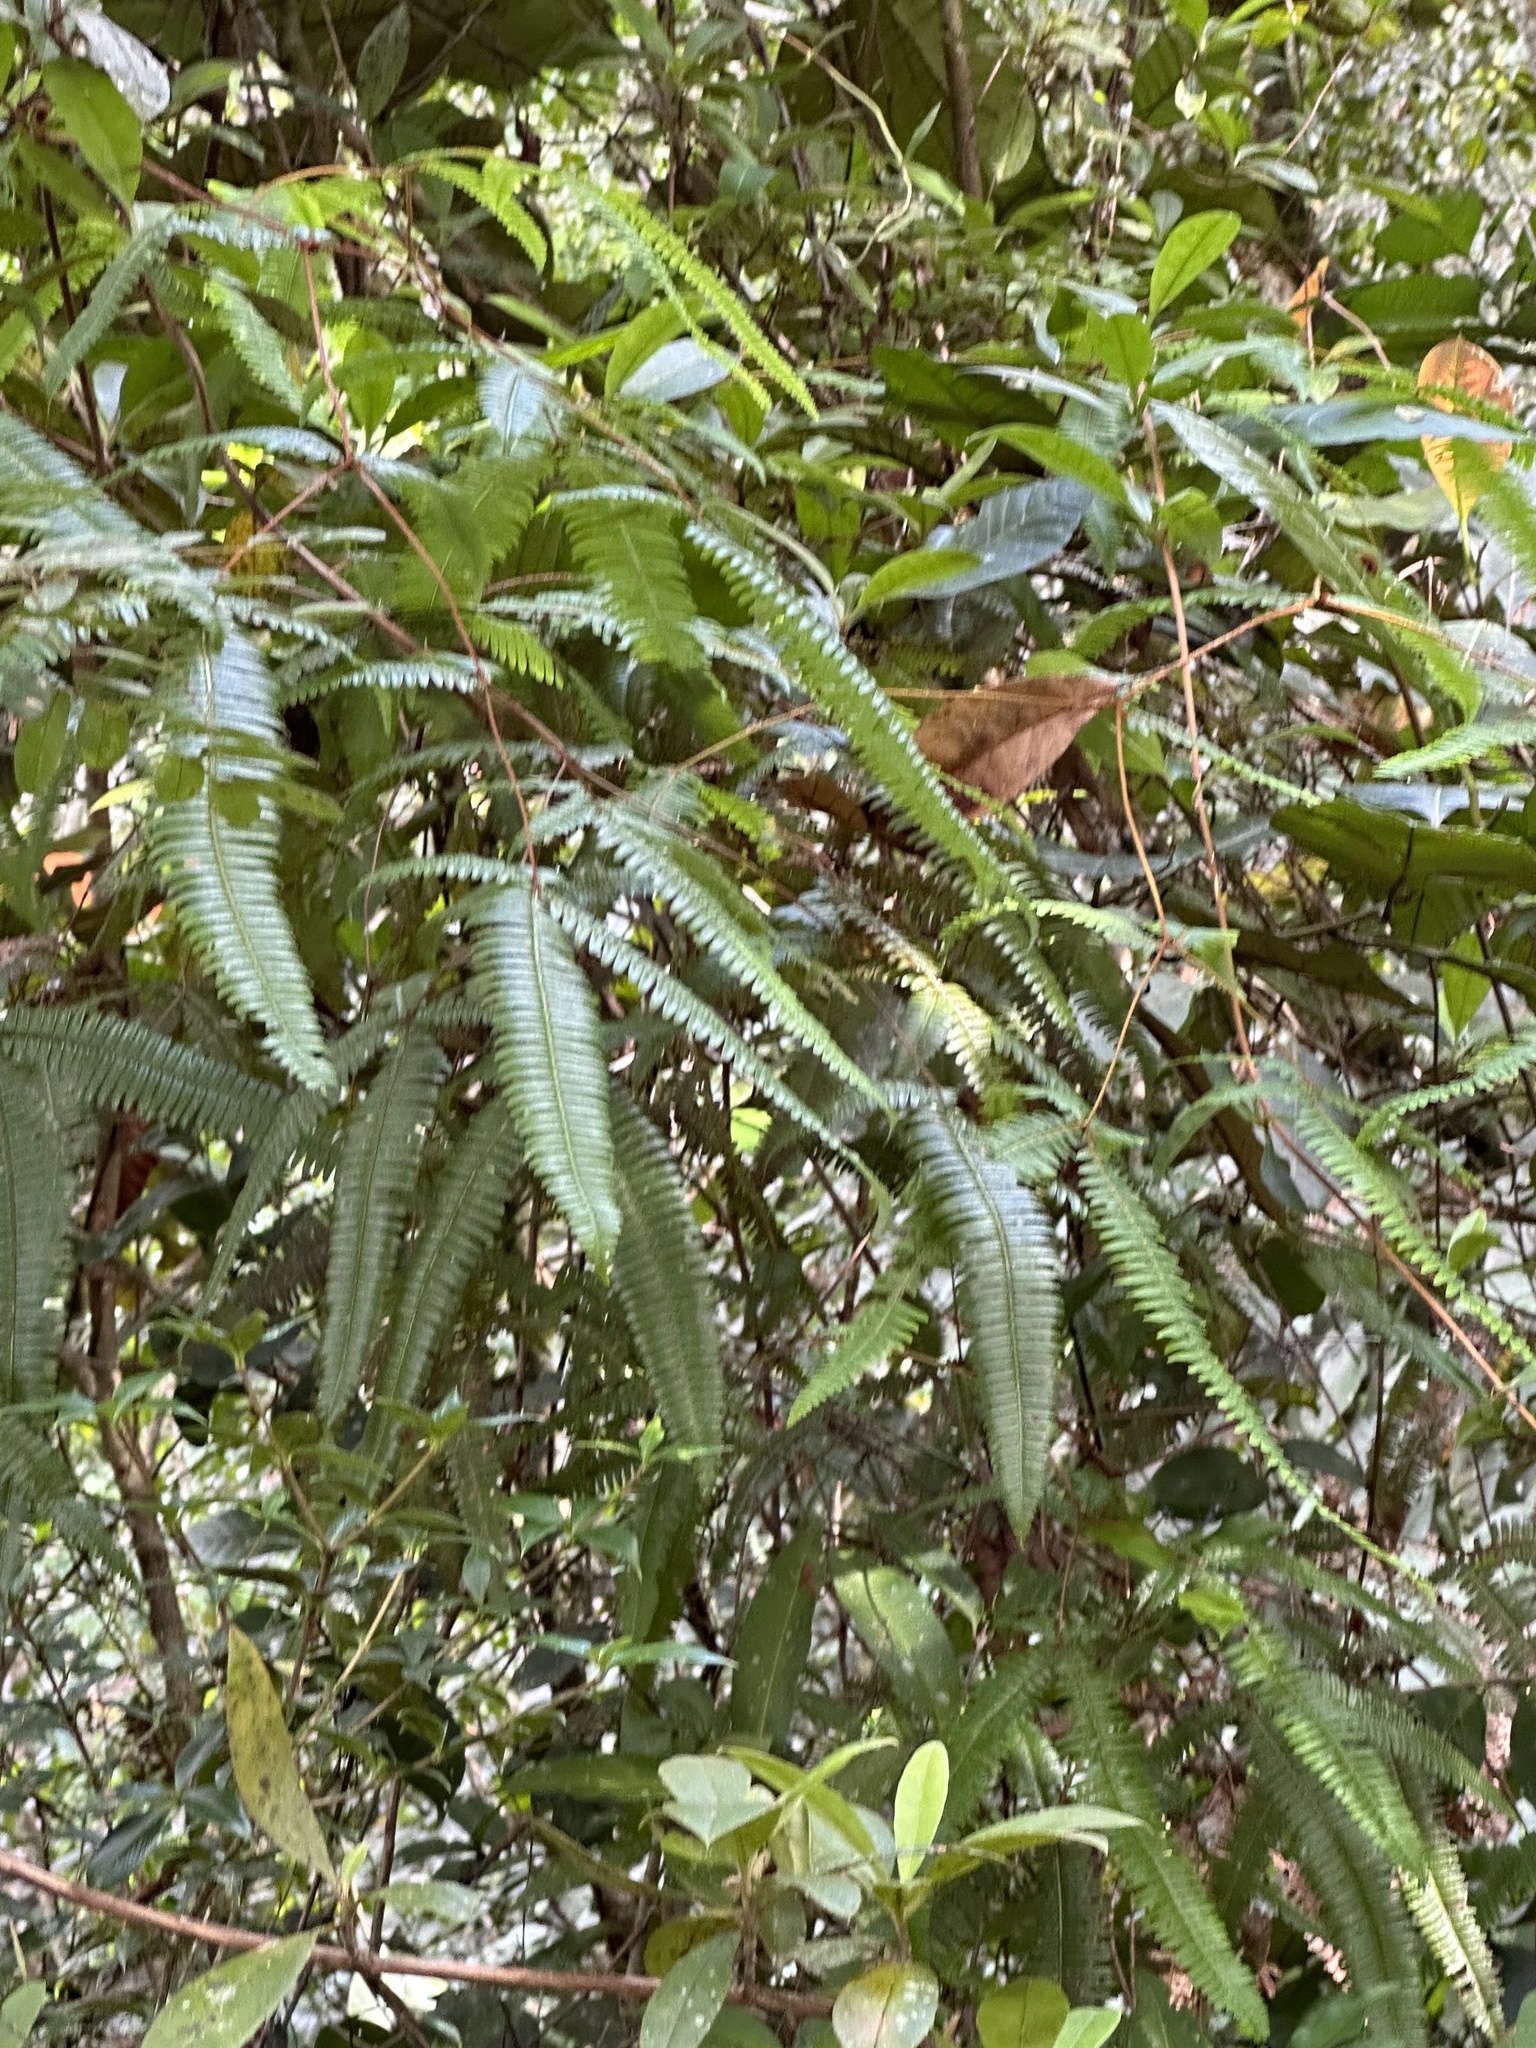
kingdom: Plantae
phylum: Tracheophyta
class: Polypodiopsida
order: Gleicheniales
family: Gleicheniaceae
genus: Dicranopteris
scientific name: Dicranopteris linearis
